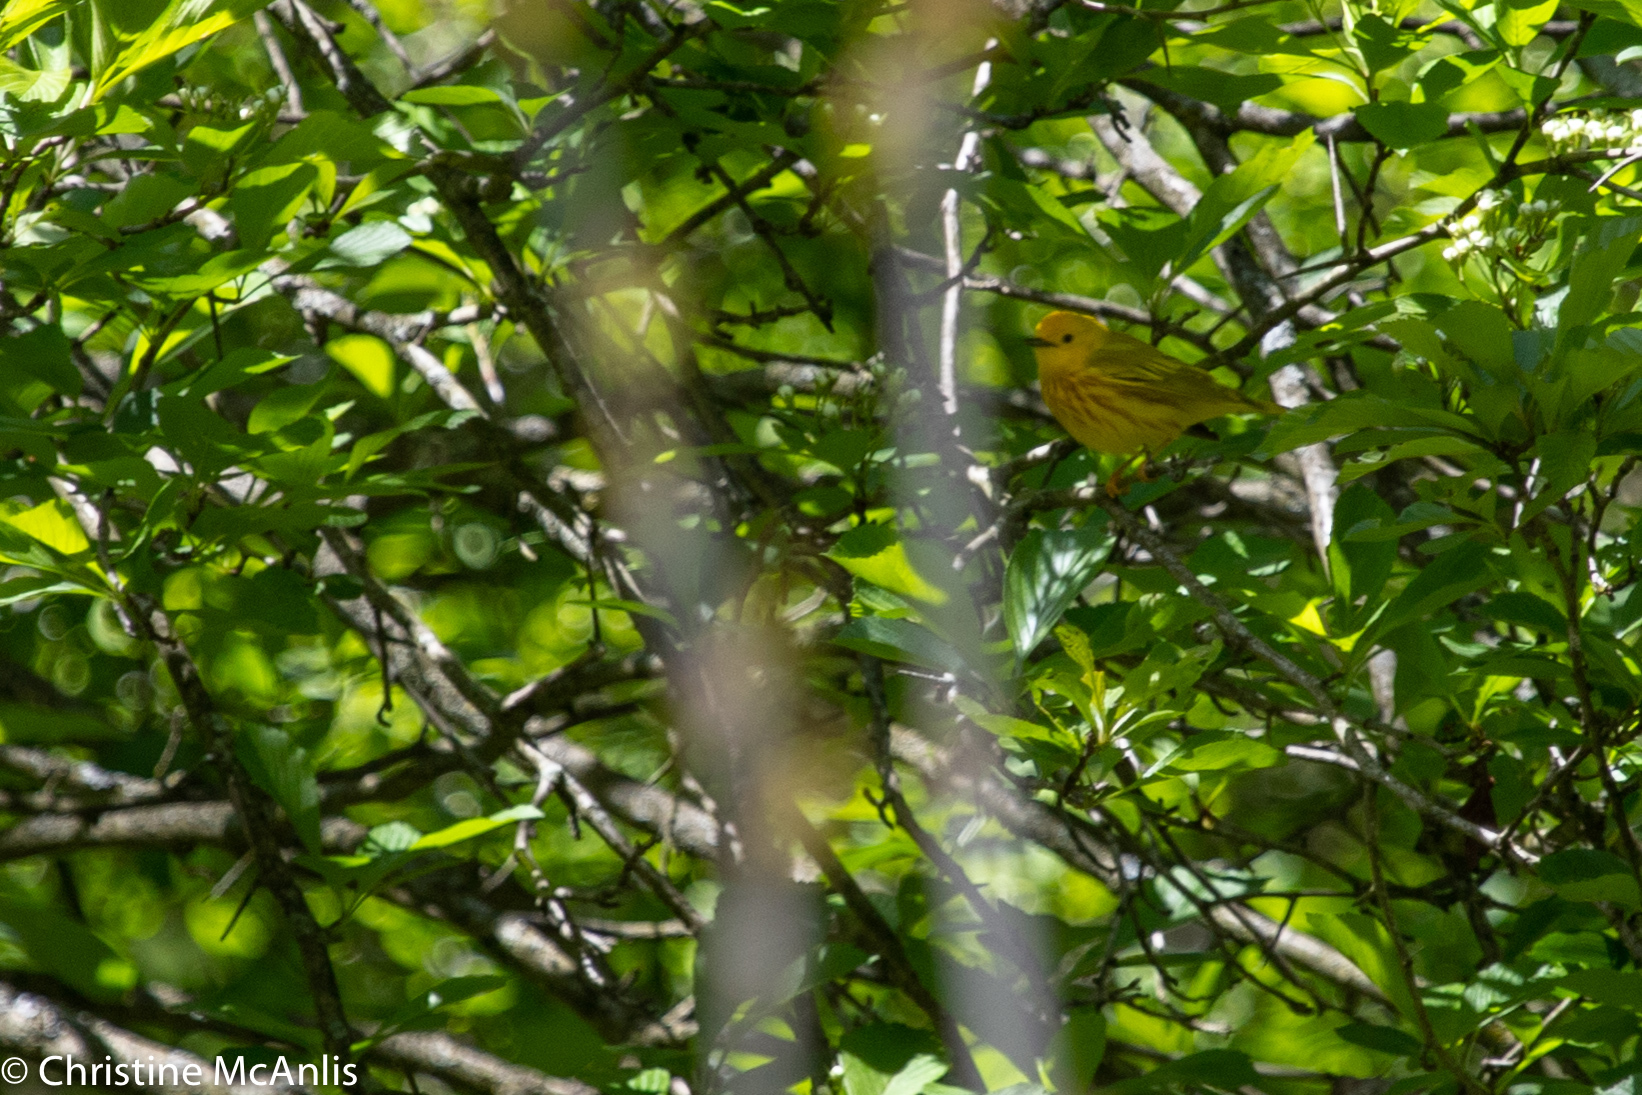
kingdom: Animalia
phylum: Chordata
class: Aves
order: Passeriformes
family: Parulidae
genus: Setophaga
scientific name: Setophaga petechia
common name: Yellow warbler
